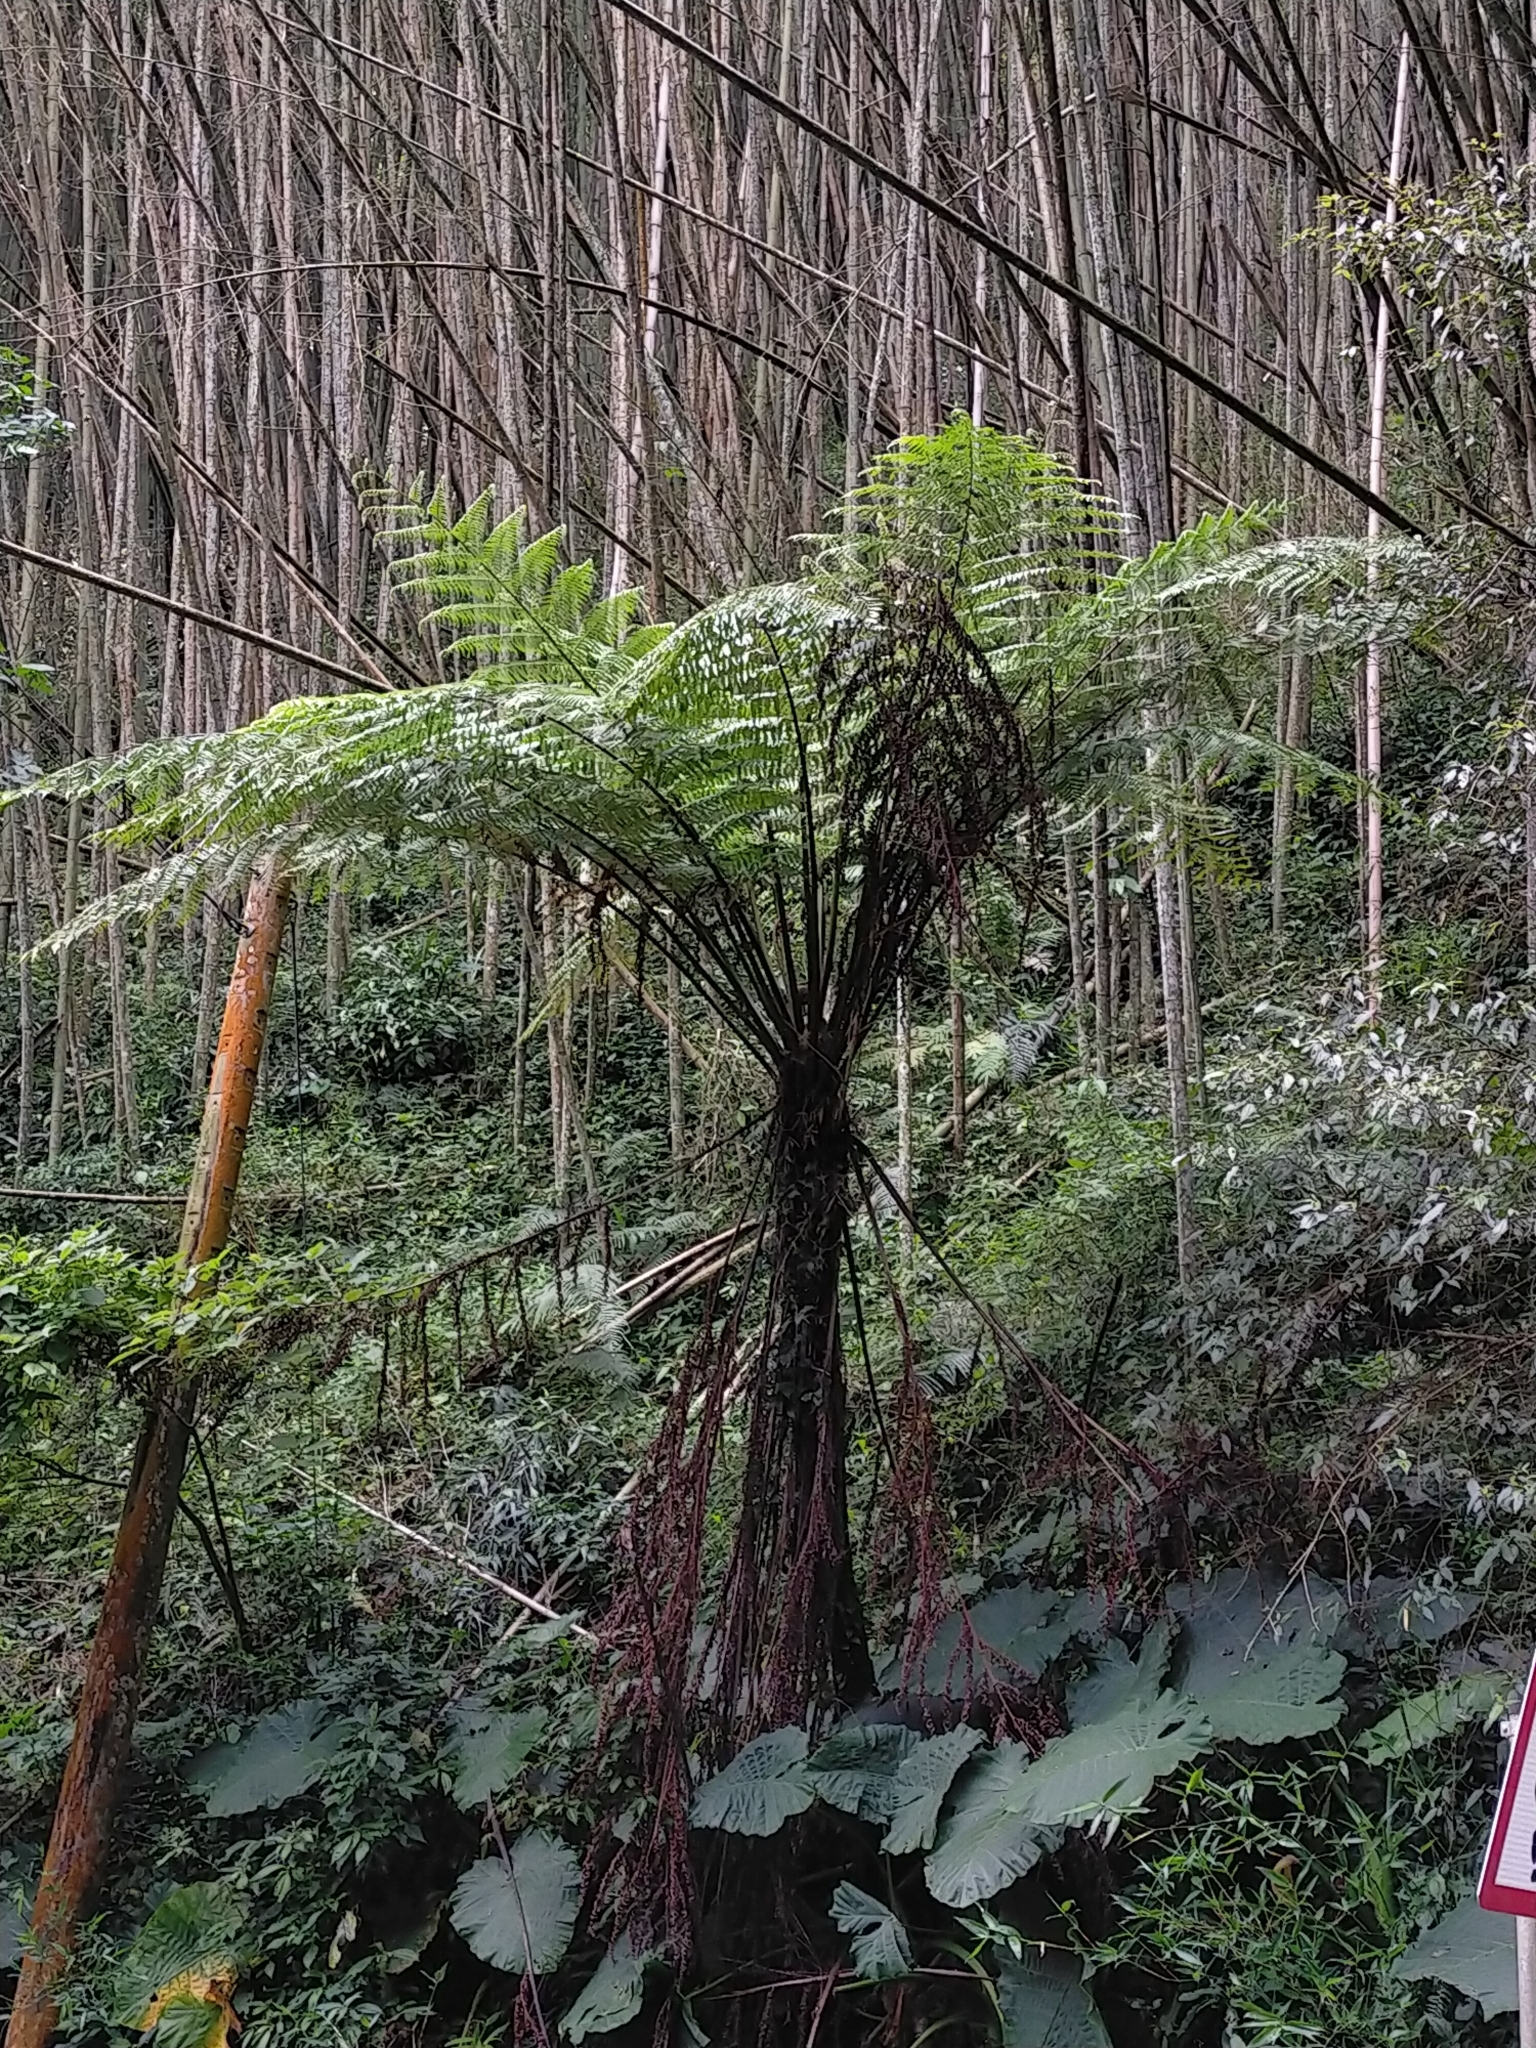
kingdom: Plantae
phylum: Tracheophyta
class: Polypodiopsida
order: Cyatheales
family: Cyatheaceae
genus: Alsophila
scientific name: Alsophila spinulosa
